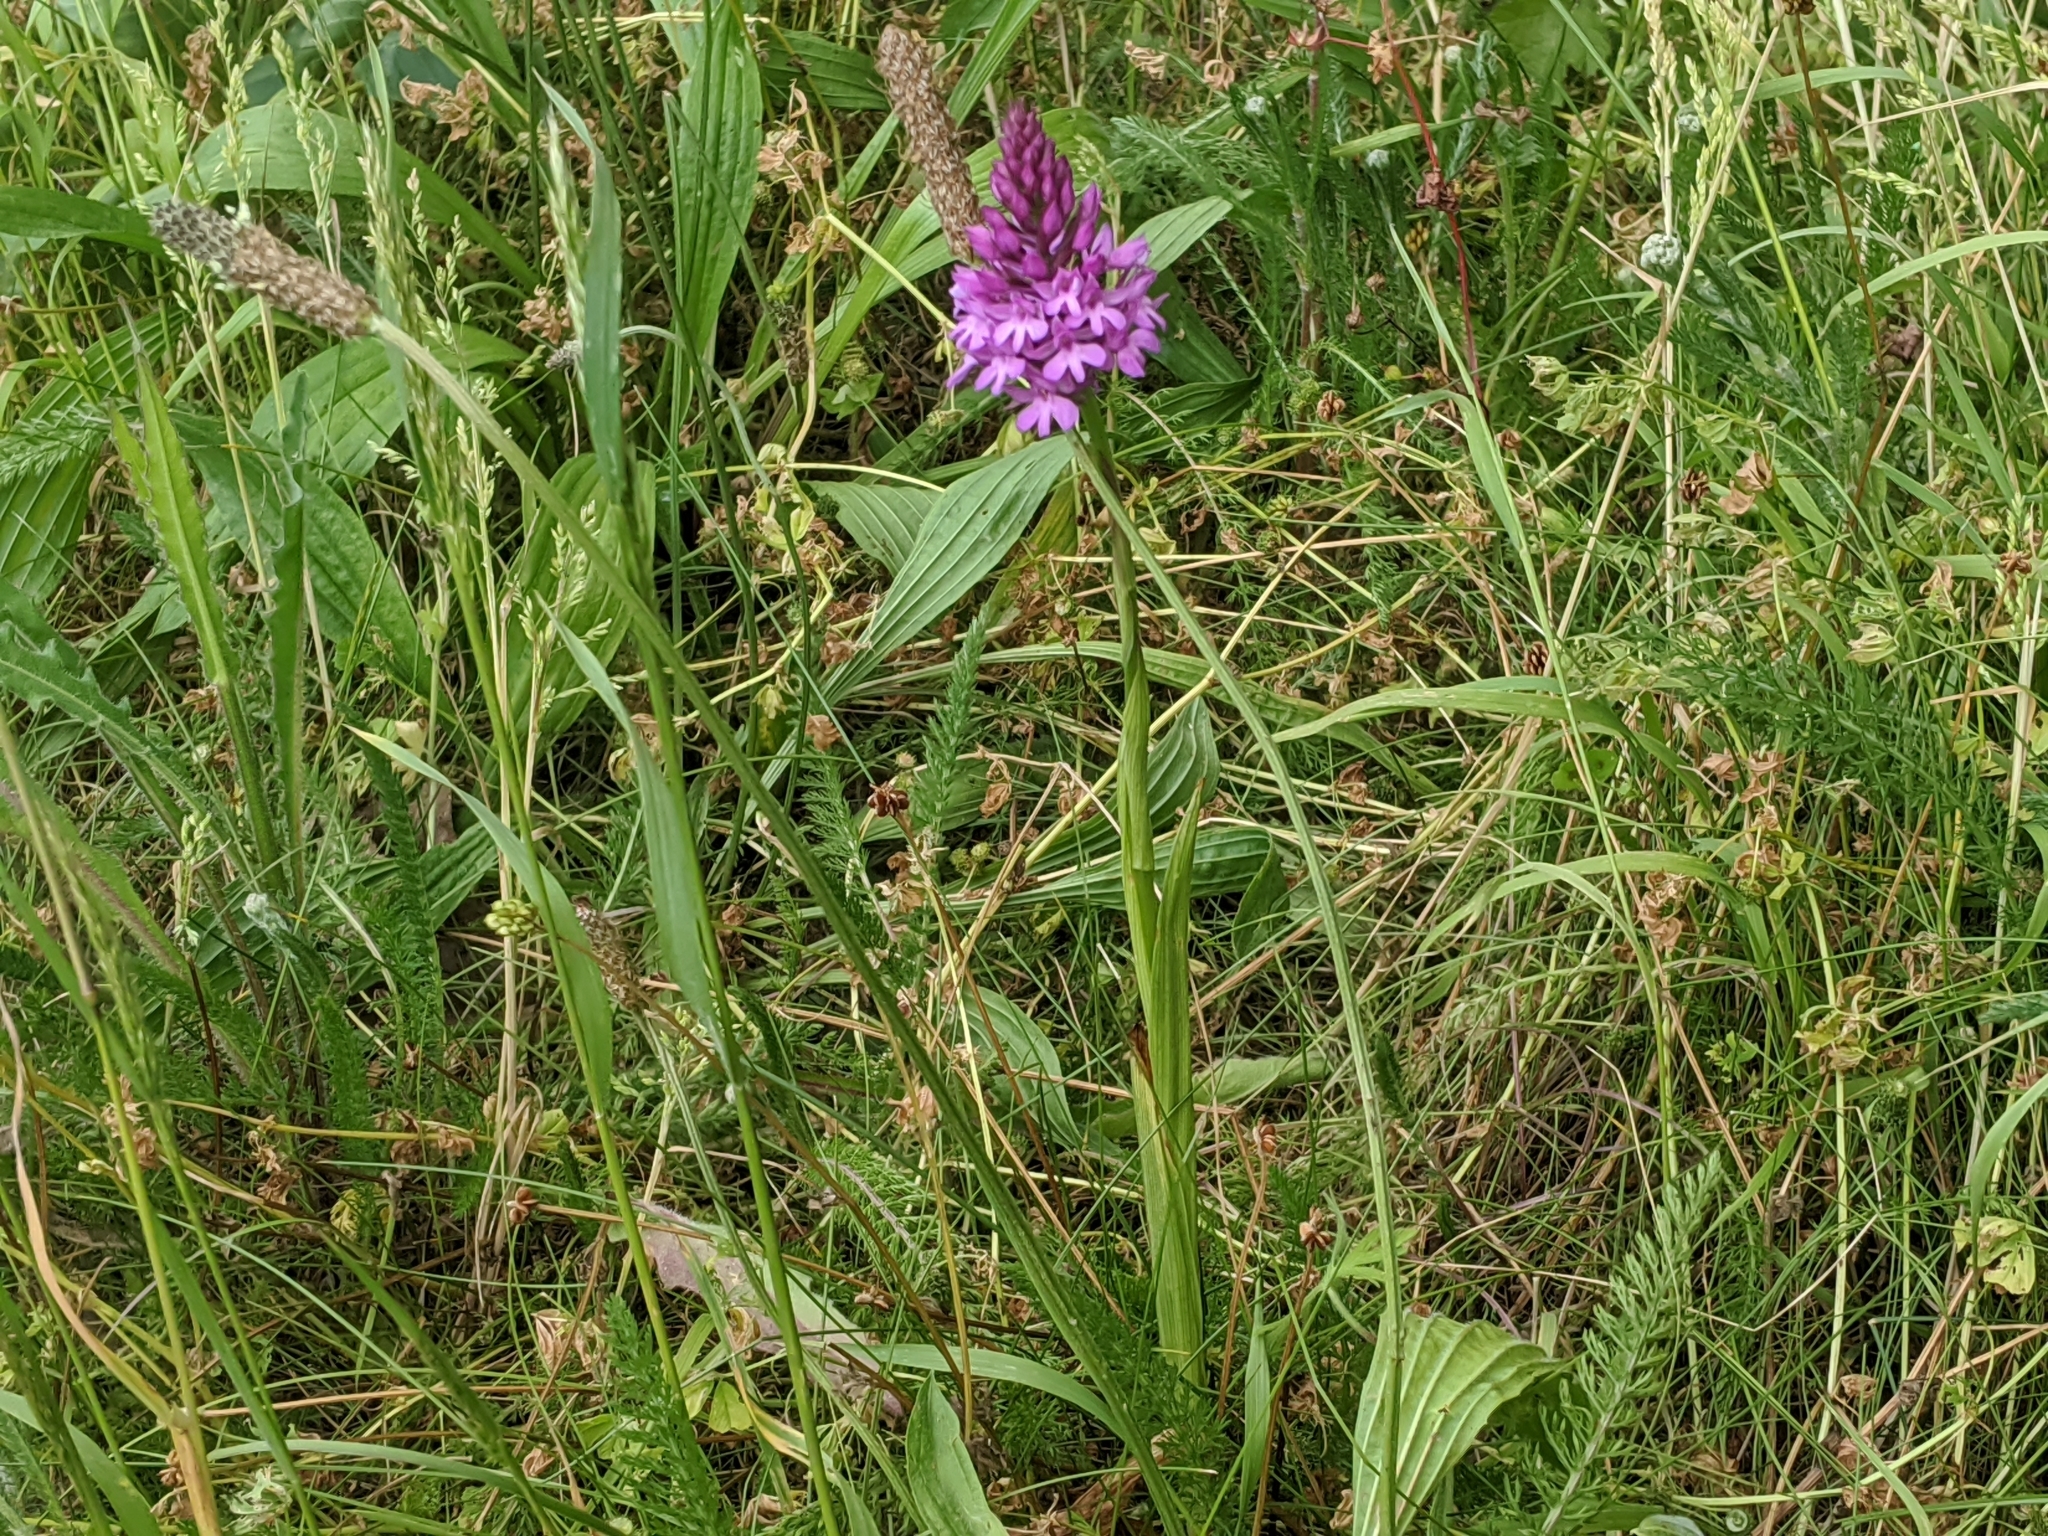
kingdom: Plantae
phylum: Tracheophyta
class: Liliopsida
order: Asparagales
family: Orchidaceae
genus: Anacamptis
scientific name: Anacamptis pyramidalis
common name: Pyramidal orchid
